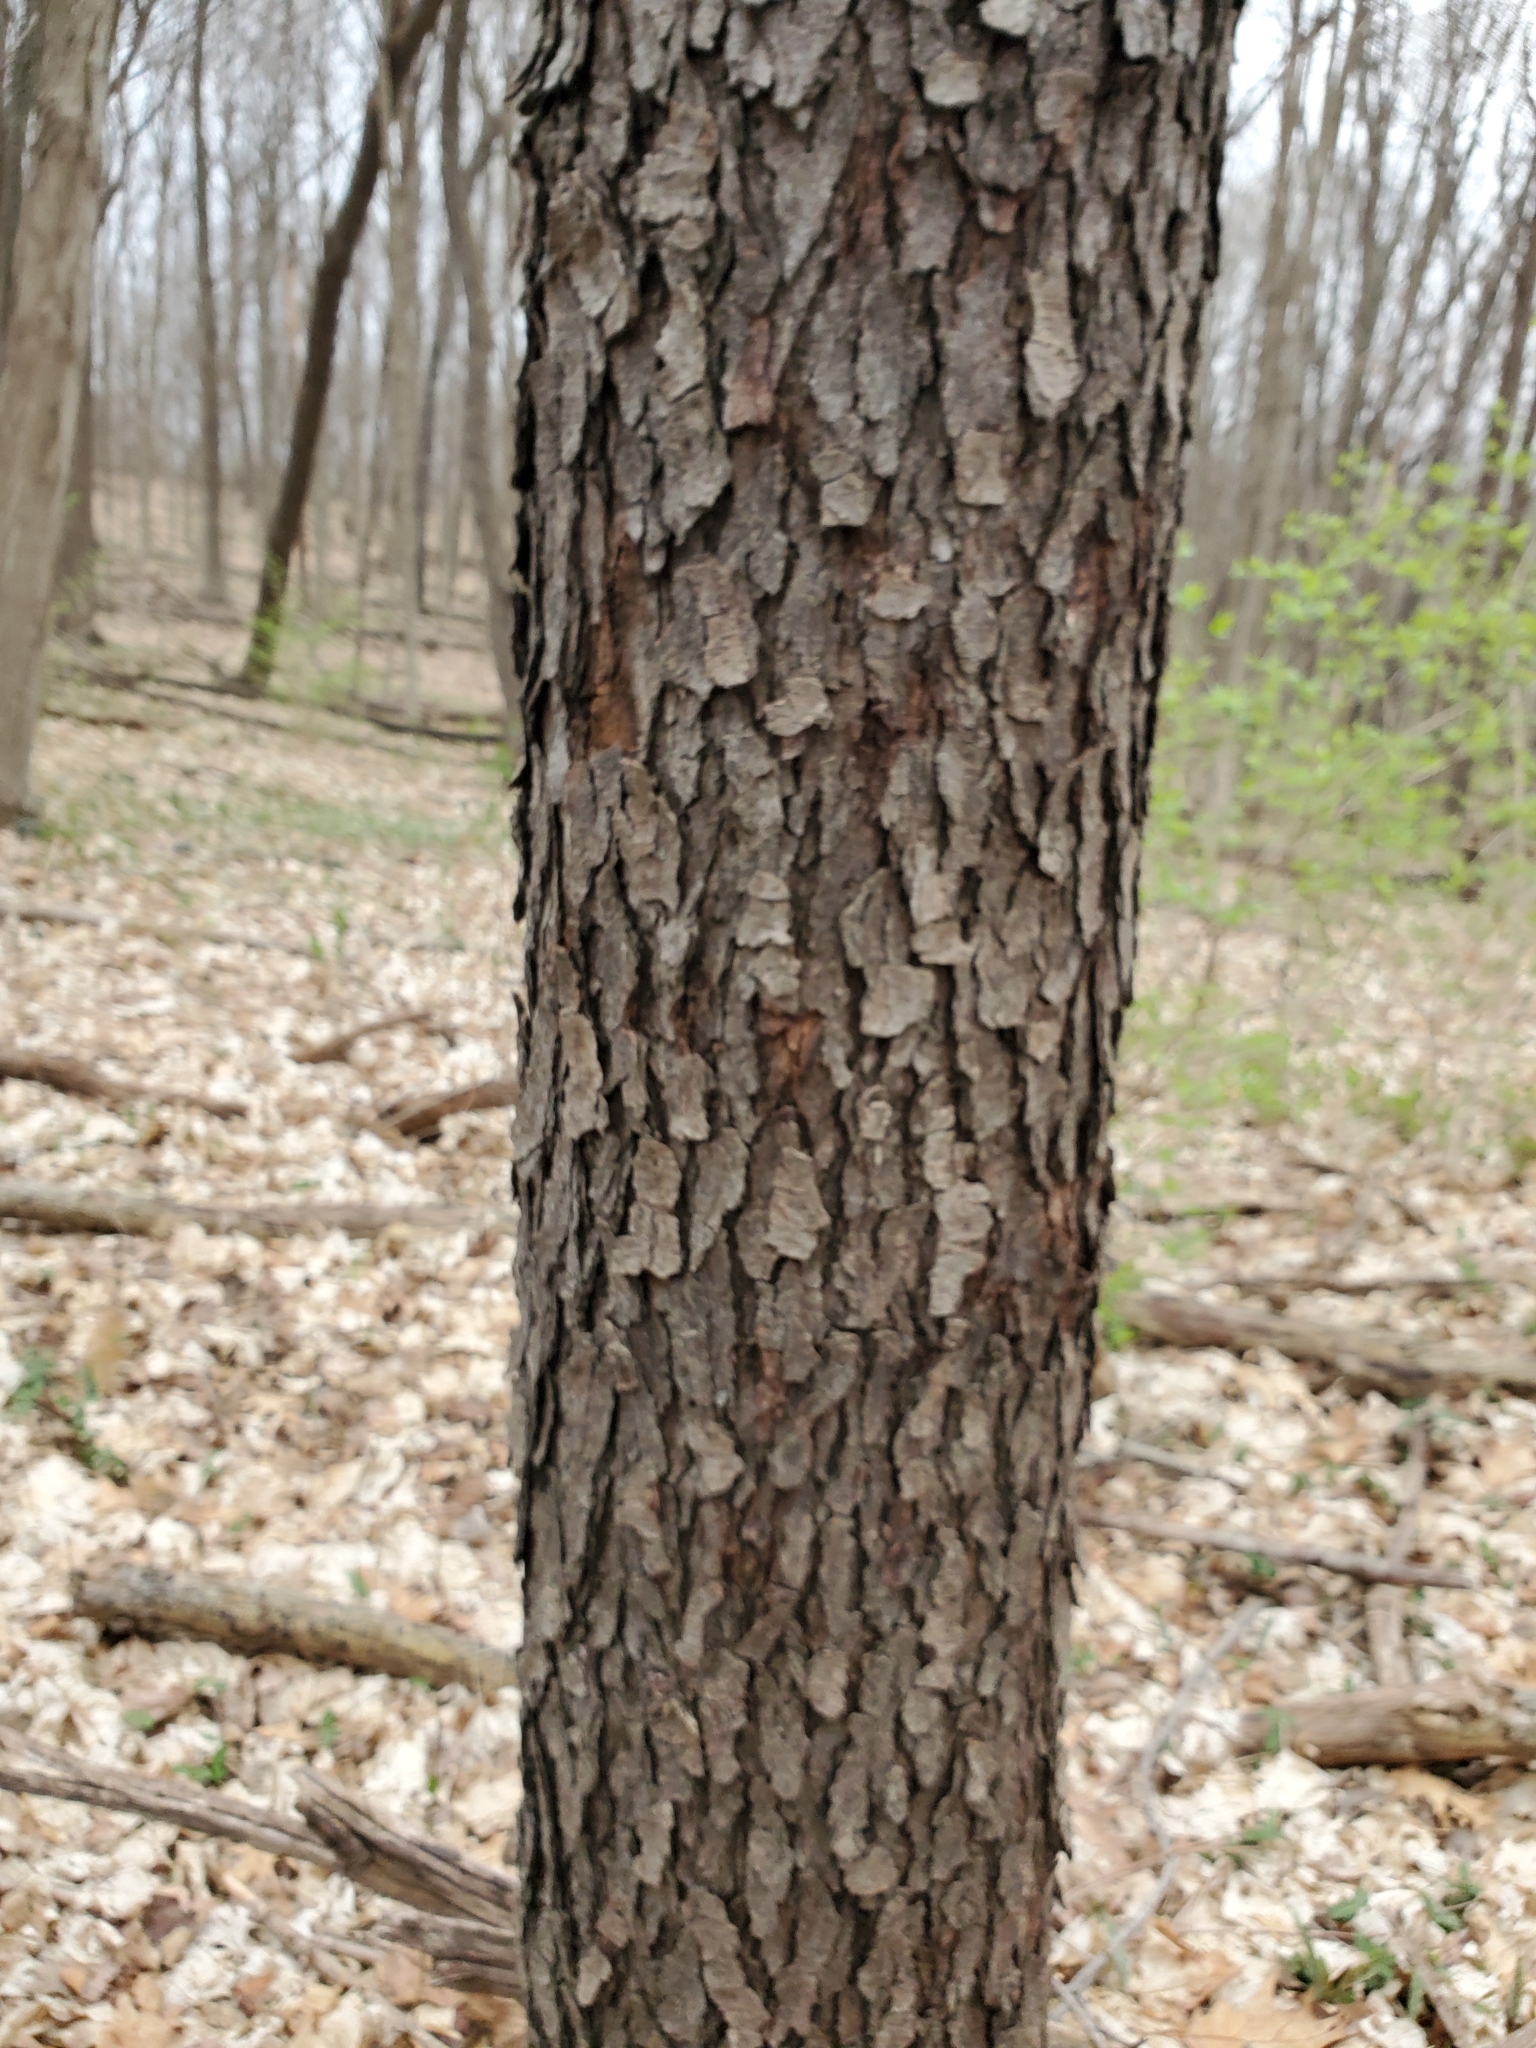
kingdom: Plantae
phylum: Tracheophyta
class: Magnoliopsida
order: Rosales
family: Rosaceae
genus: Prunus
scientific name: Prunus serotina
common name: Black cherry
